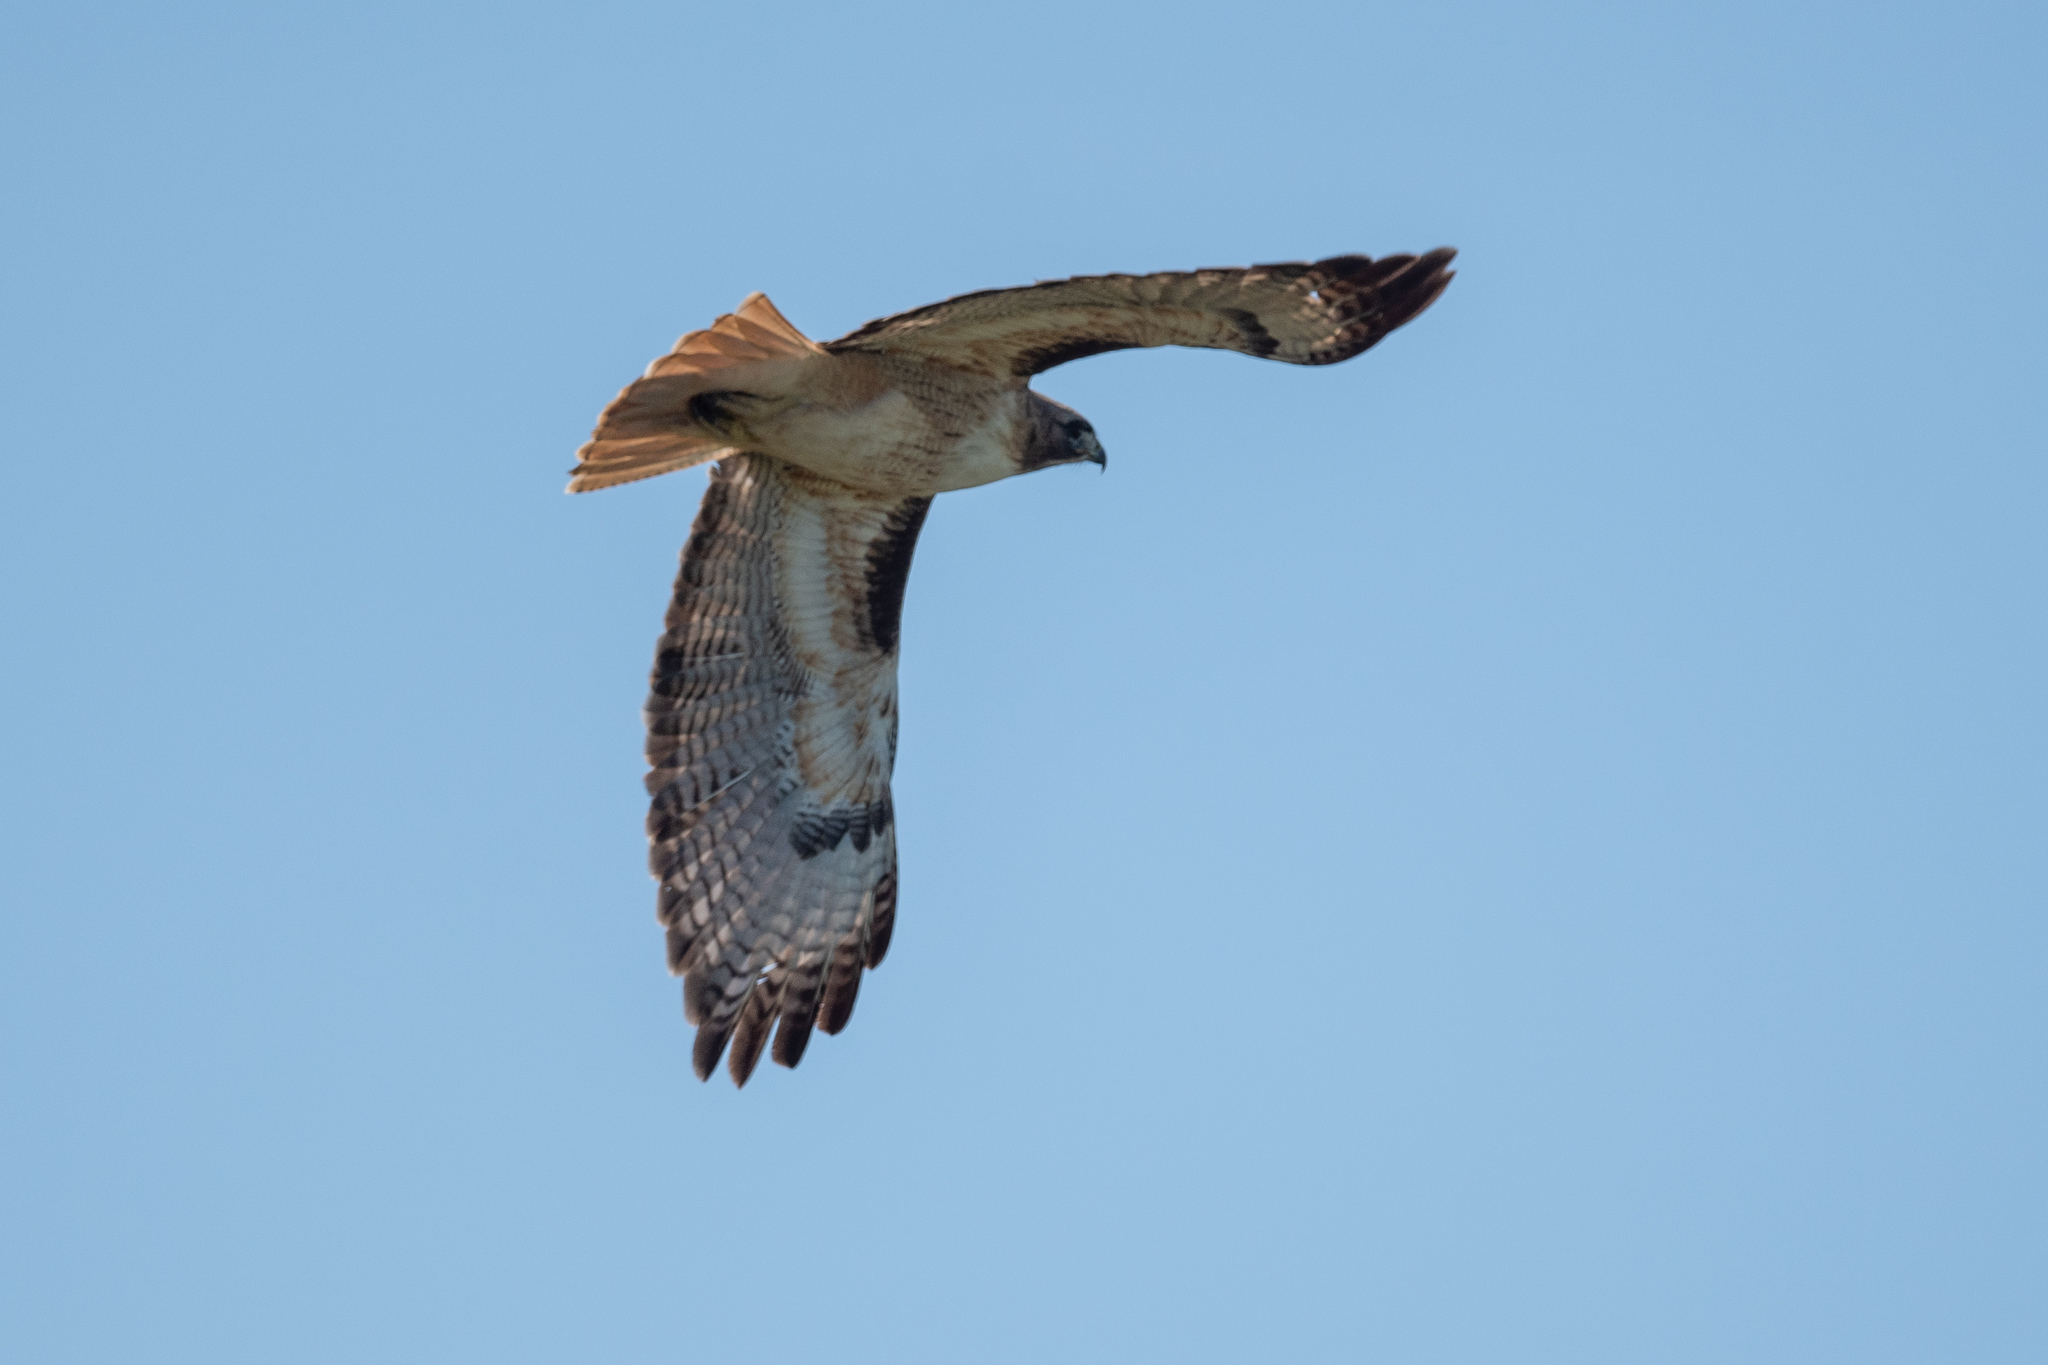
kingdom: Animalia
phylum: Chordata
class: Aves
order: Accipitriformes
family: Accipitridae
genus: Buteo
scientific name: Buteo jamaicensis
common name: Red-tailed hawk
